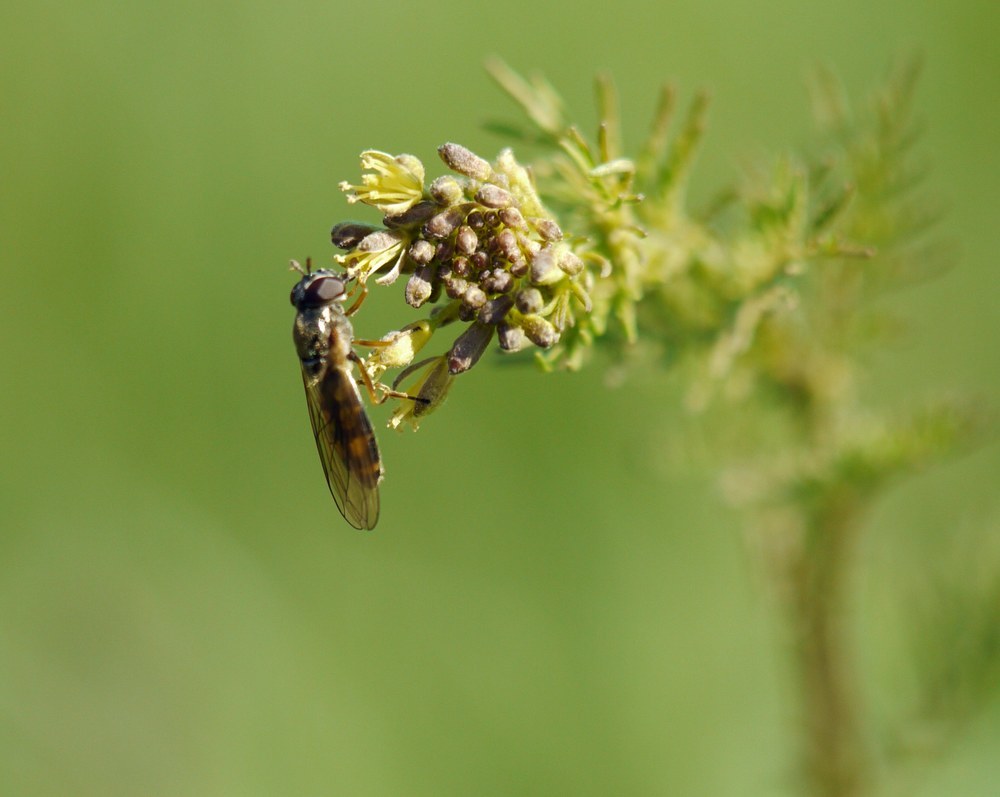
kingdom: Animalia
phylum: Arthropoda
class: Insecta
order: Diptera
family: Syrphidae
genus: Melanostoma
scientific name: Melanostoma scalare
